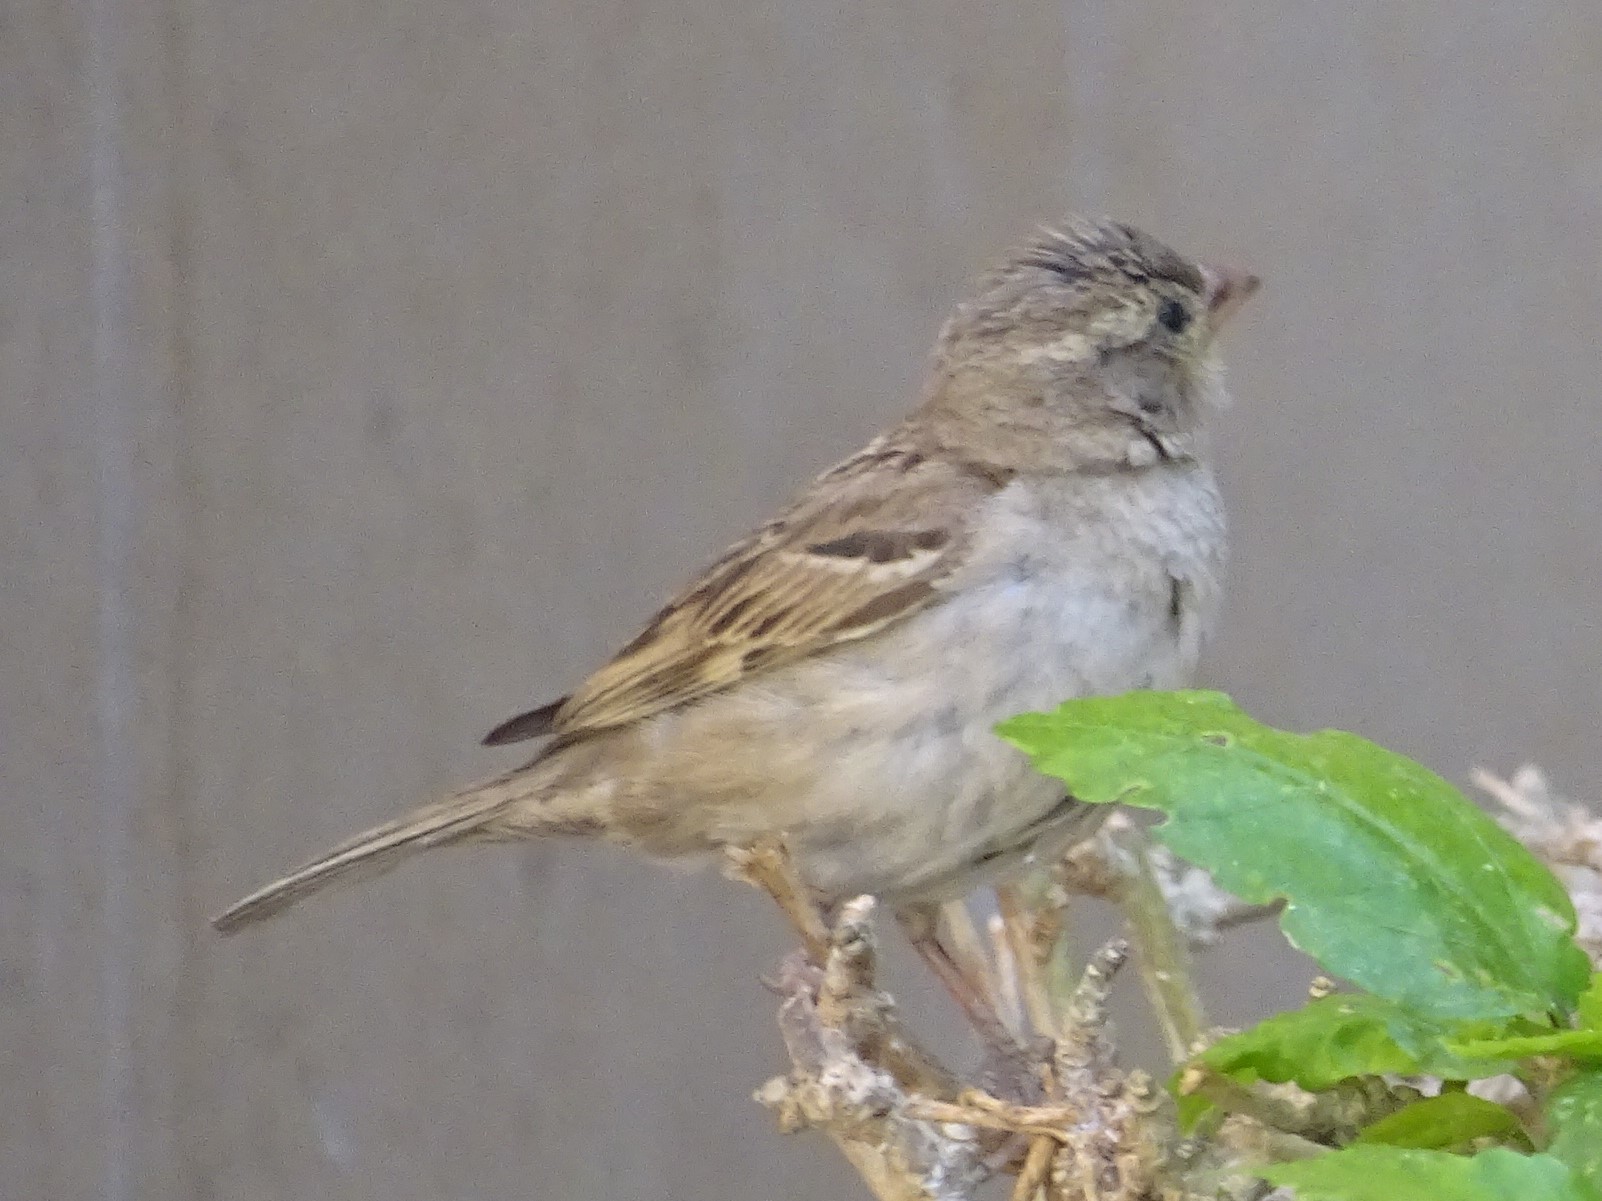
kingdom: Animalia
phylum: Chordata
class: Aves
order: Passeriformes
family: Passeridae
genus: Passer
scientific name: Passer domesticus
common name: House sparrow
